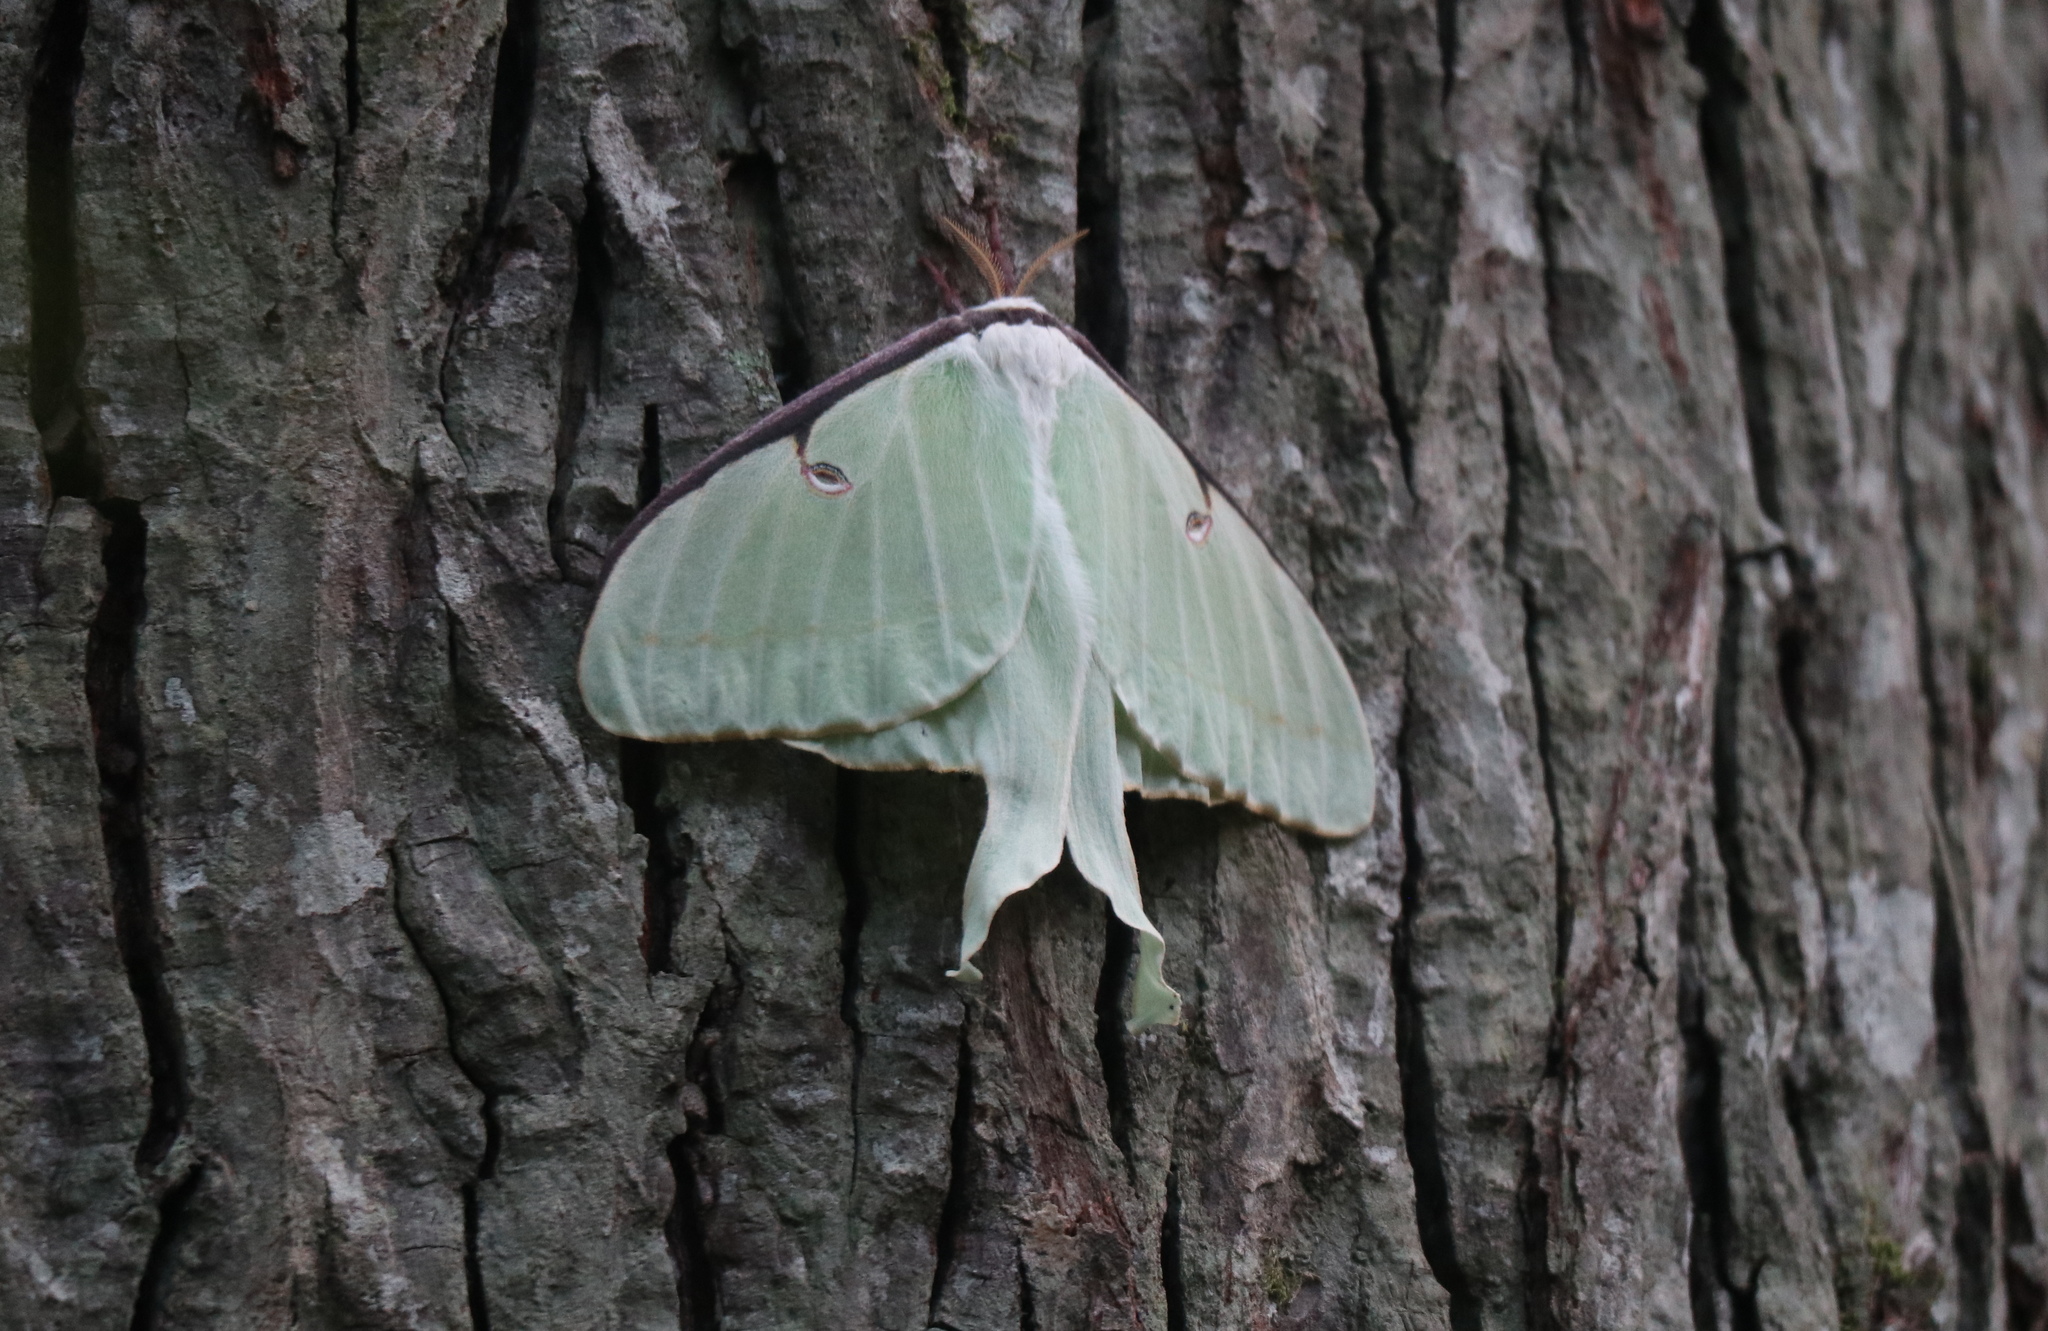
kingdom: Animalia
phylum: Arthropoda
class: Insecta
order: Lepidoptera
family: Saturniidae
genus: Actias
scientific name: Actias luna
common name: Luna moth
